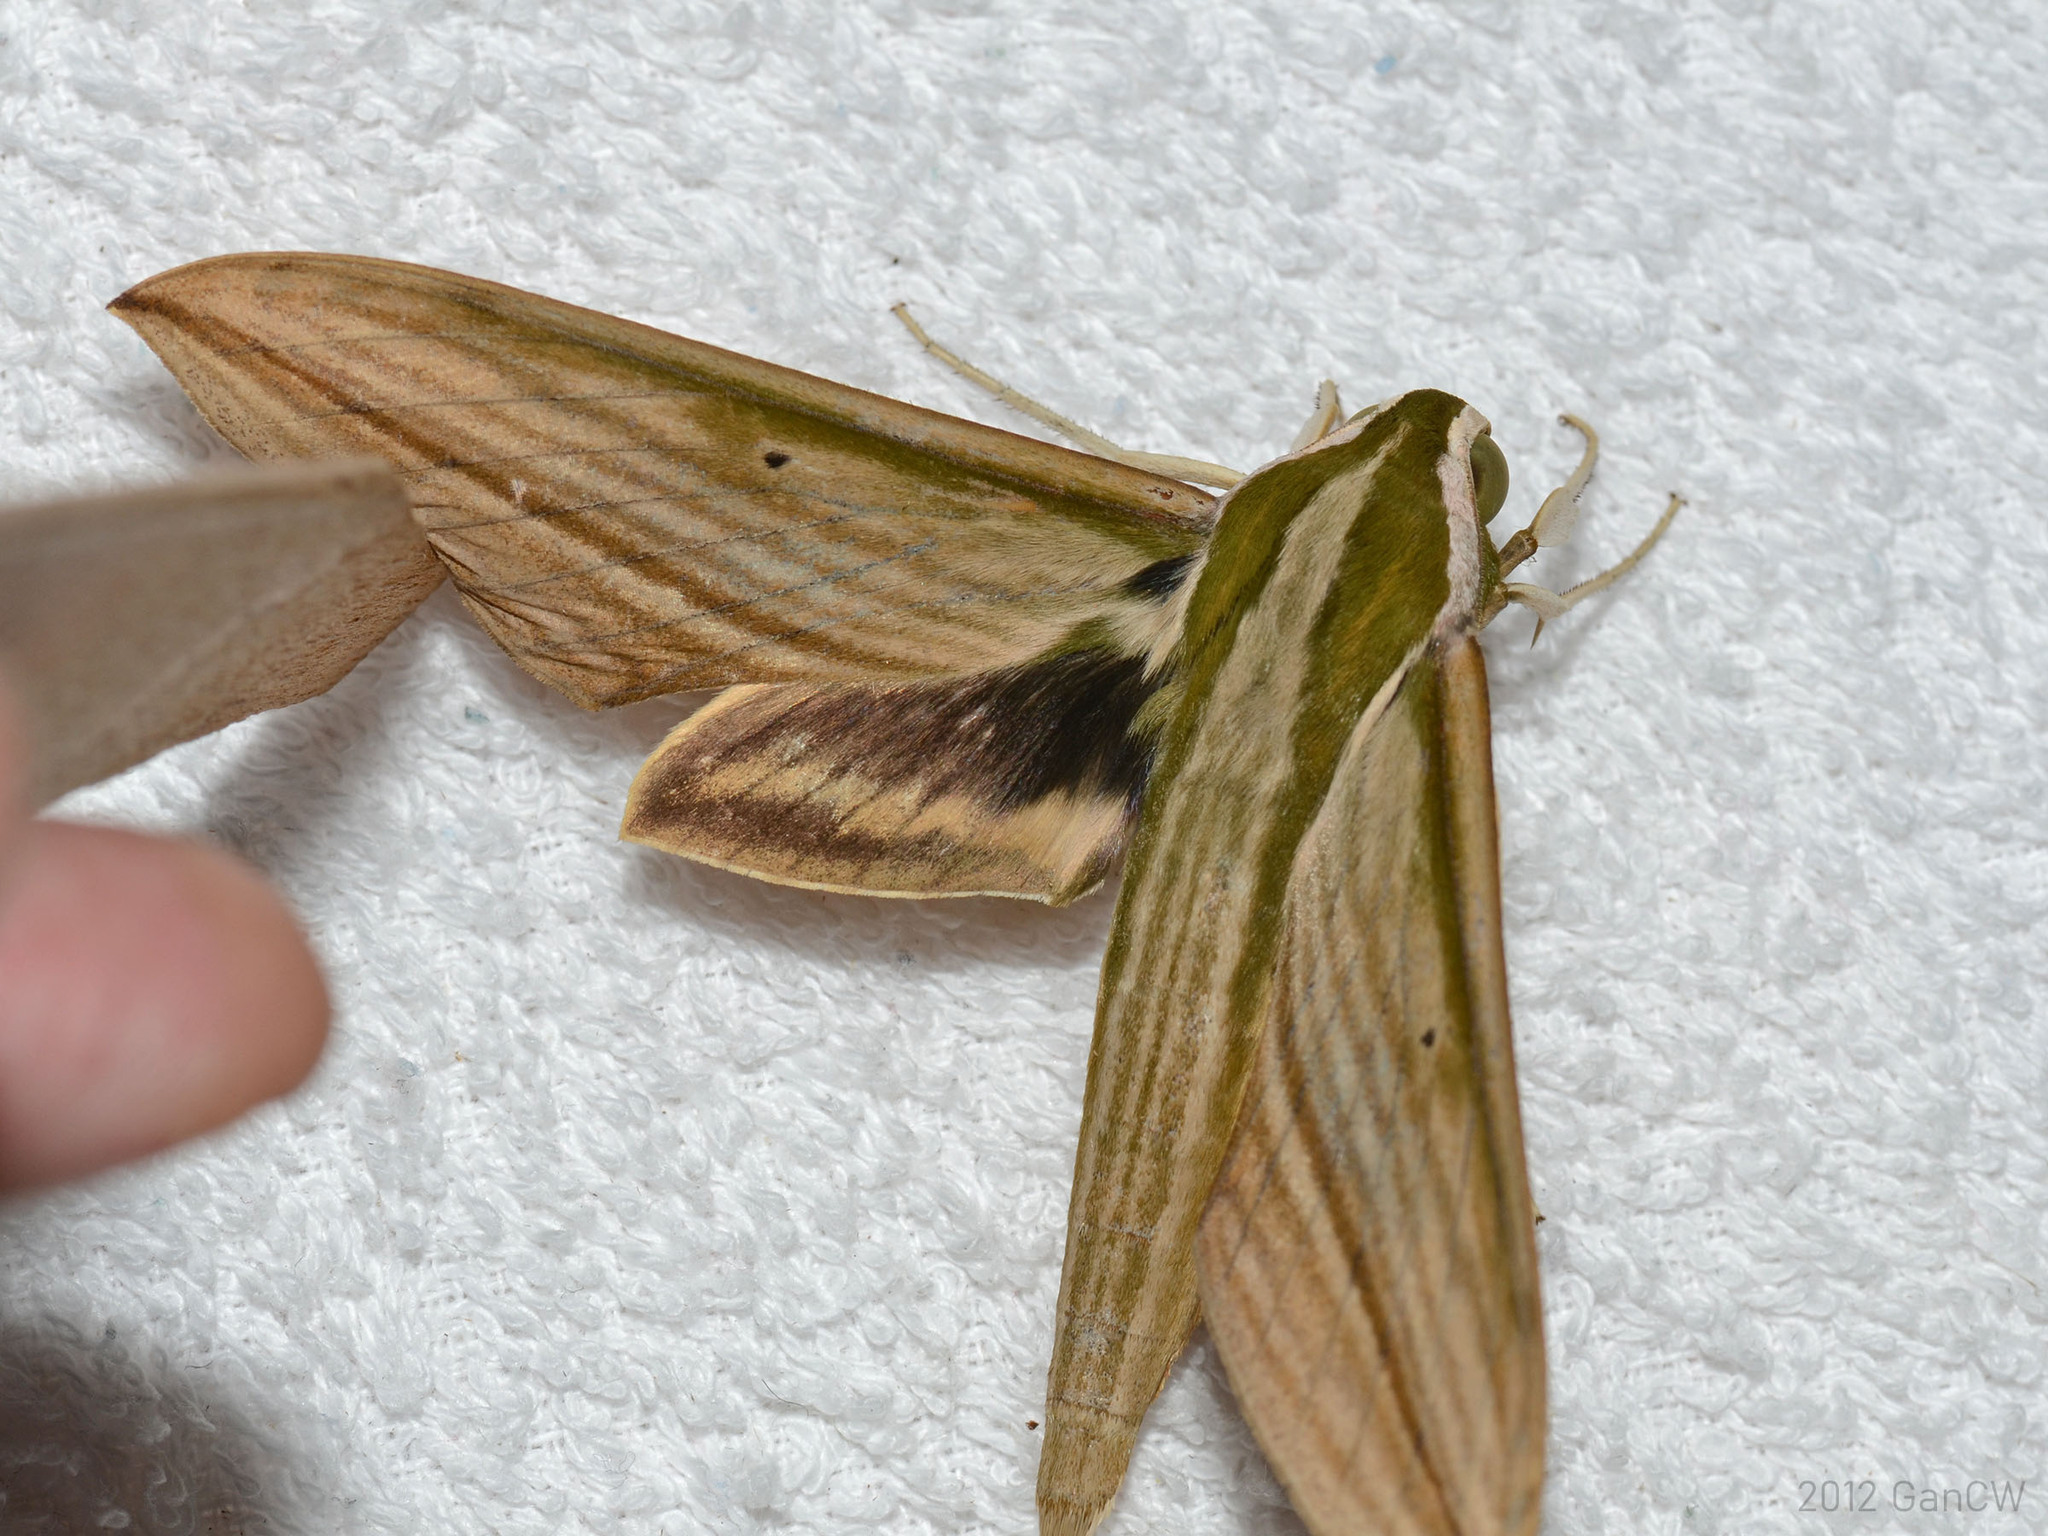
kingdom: Animalia
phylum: Arthropoda
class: Insecta
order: Lepidoptera
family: Sphingidae
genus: Cechetra
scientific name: Cechetra lineosa
